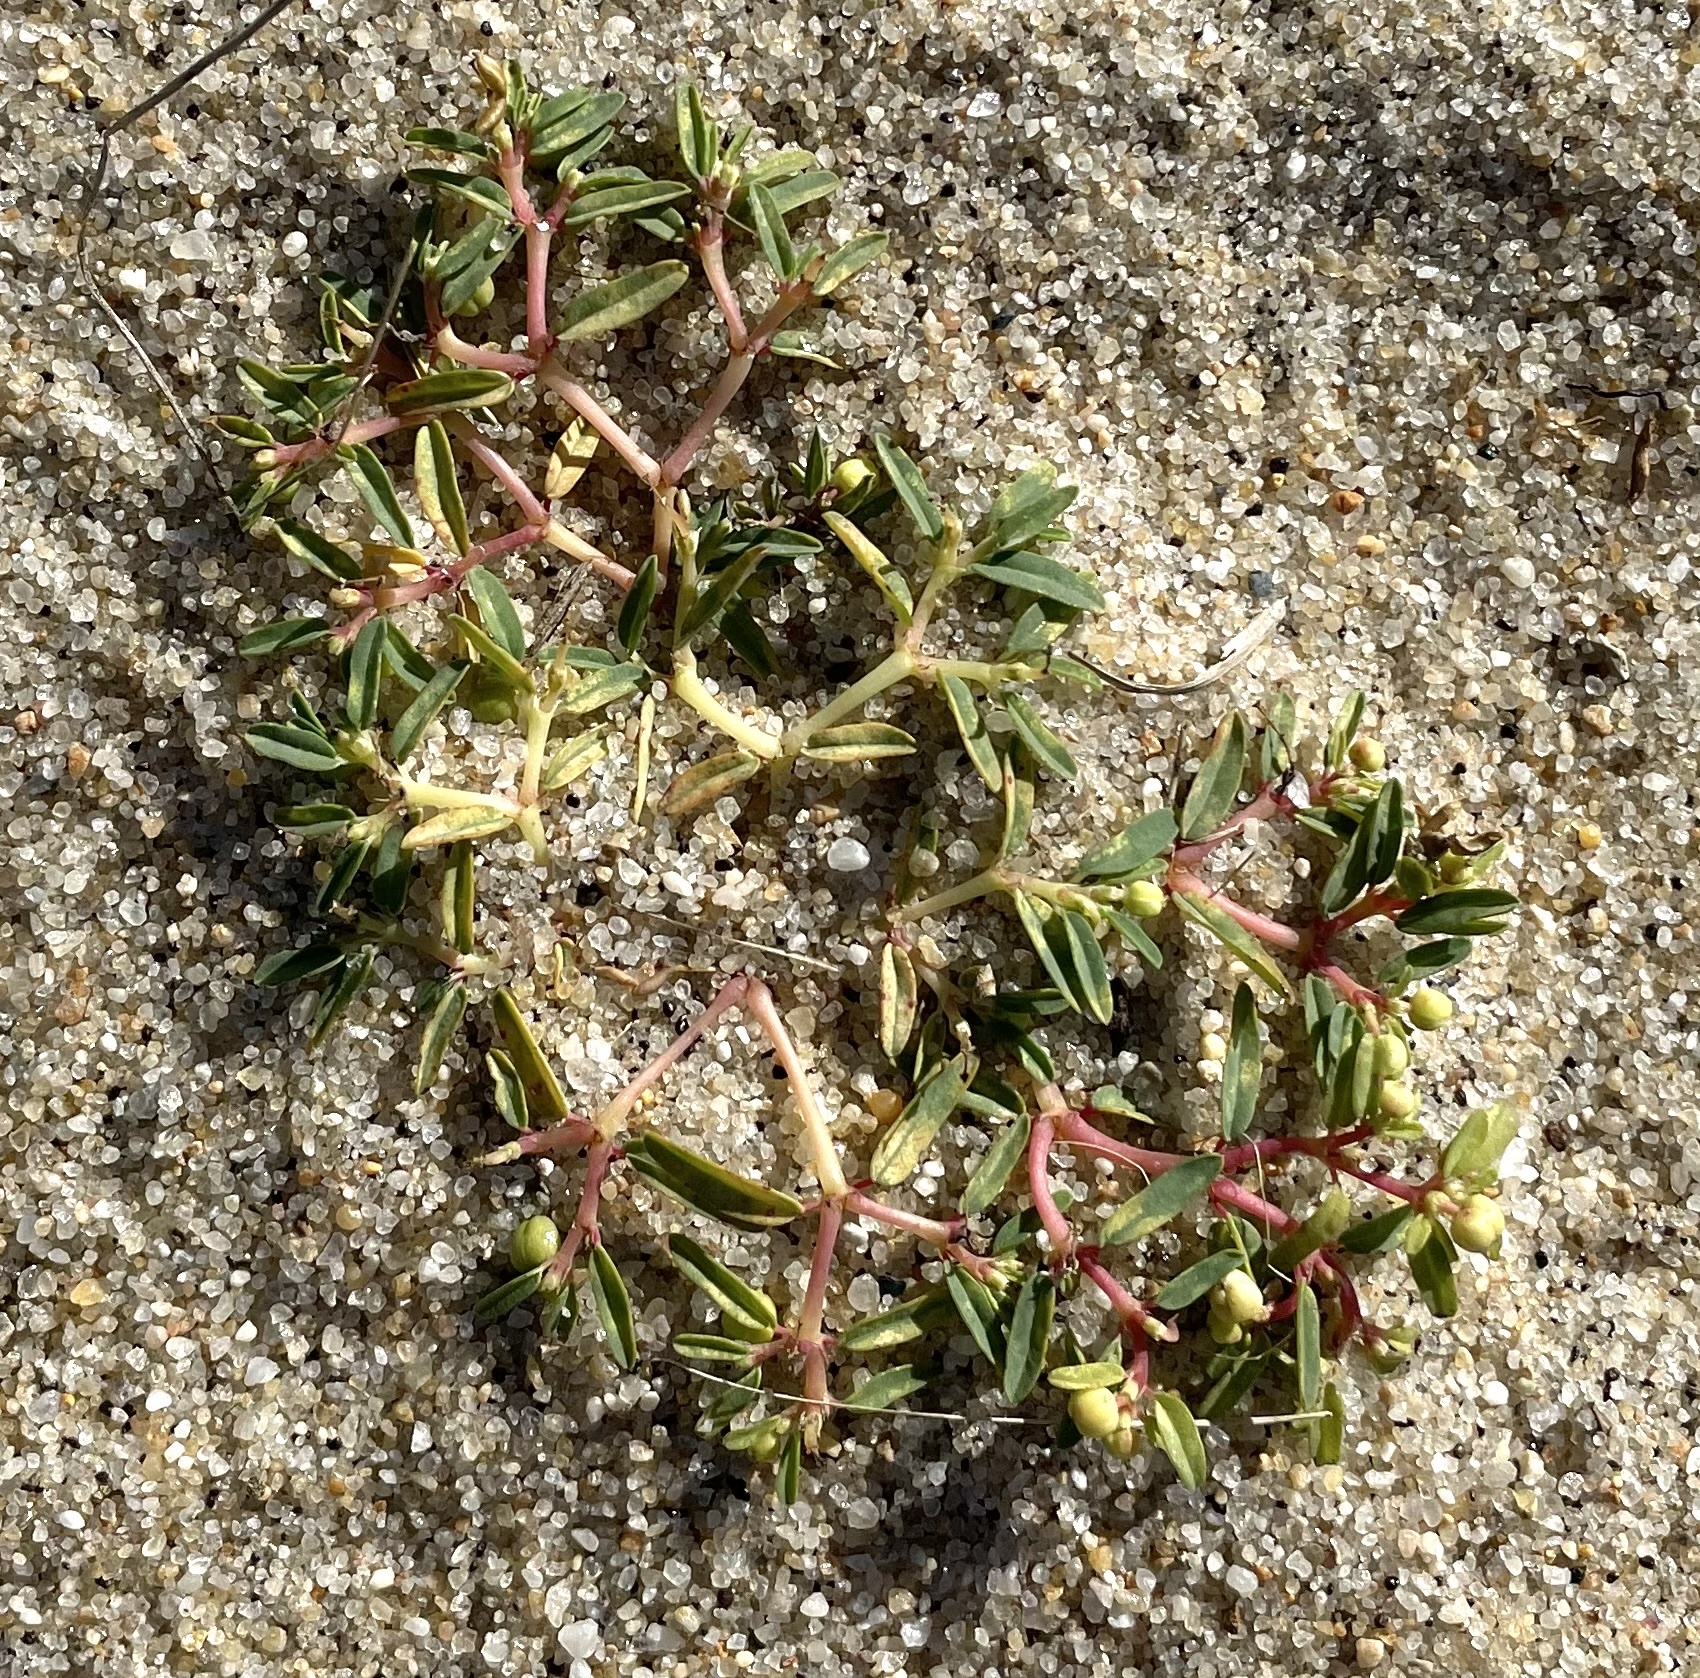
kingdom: Plantae
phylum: Tracheophyta
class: Magnoliopsida
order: Malpighiales
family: Euphorbiaceae
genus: Euphorbia
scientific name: Euphorbia polygonifolia
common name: Knotweed spurge
